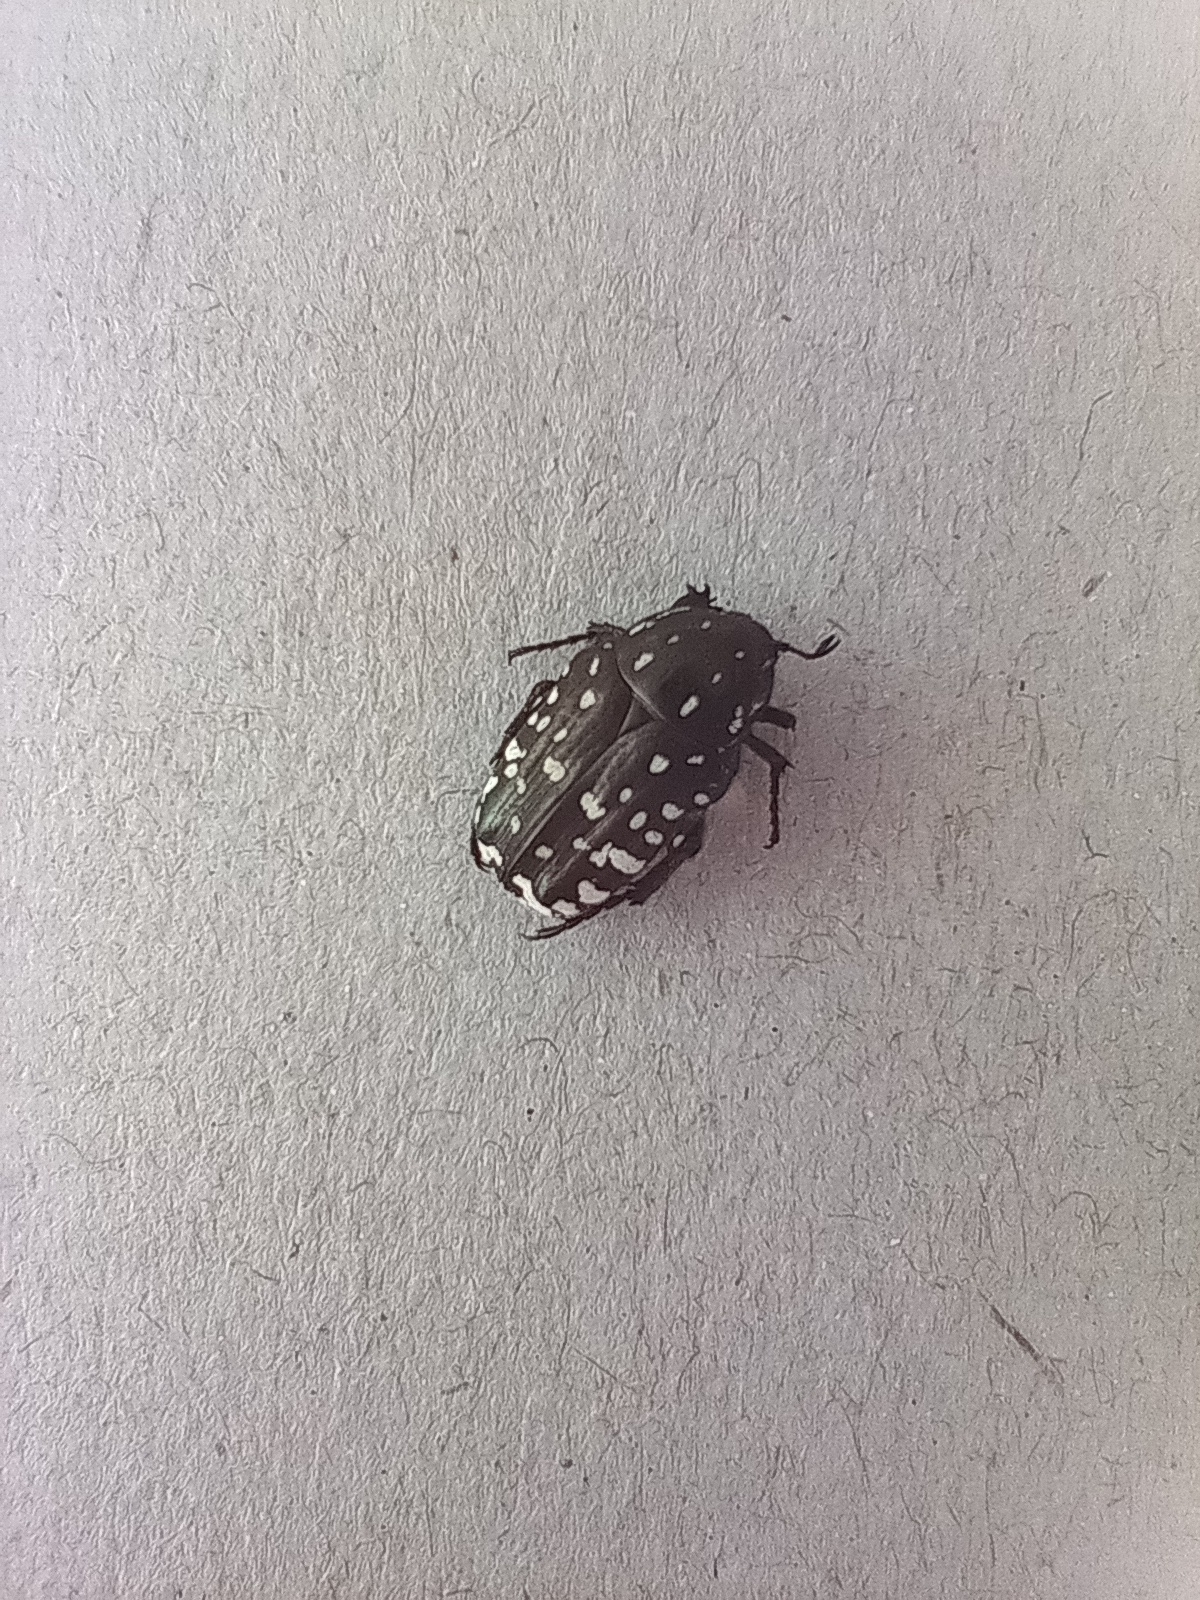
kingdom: Animalia
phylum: Arthropoda
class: Insecta
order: Coleoptera
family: Scarabaeidae
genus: Oxythyrea
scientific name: Oxythyrea funesta
